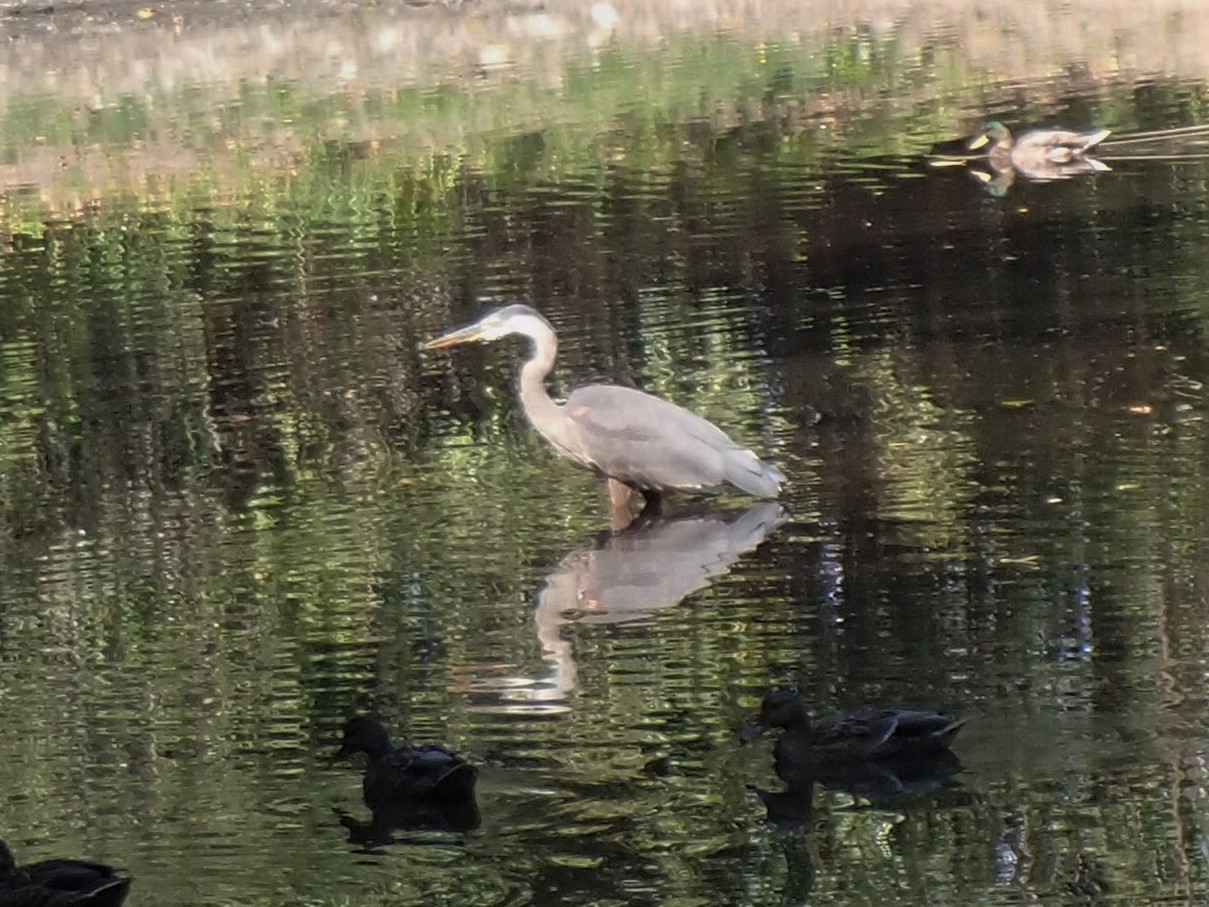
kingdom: Animalia
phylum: Chordata
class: Aves
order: Pelecaniformes
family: Ardeidae
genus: Ardea
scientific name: Ardea herodias
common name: Great blue heron
